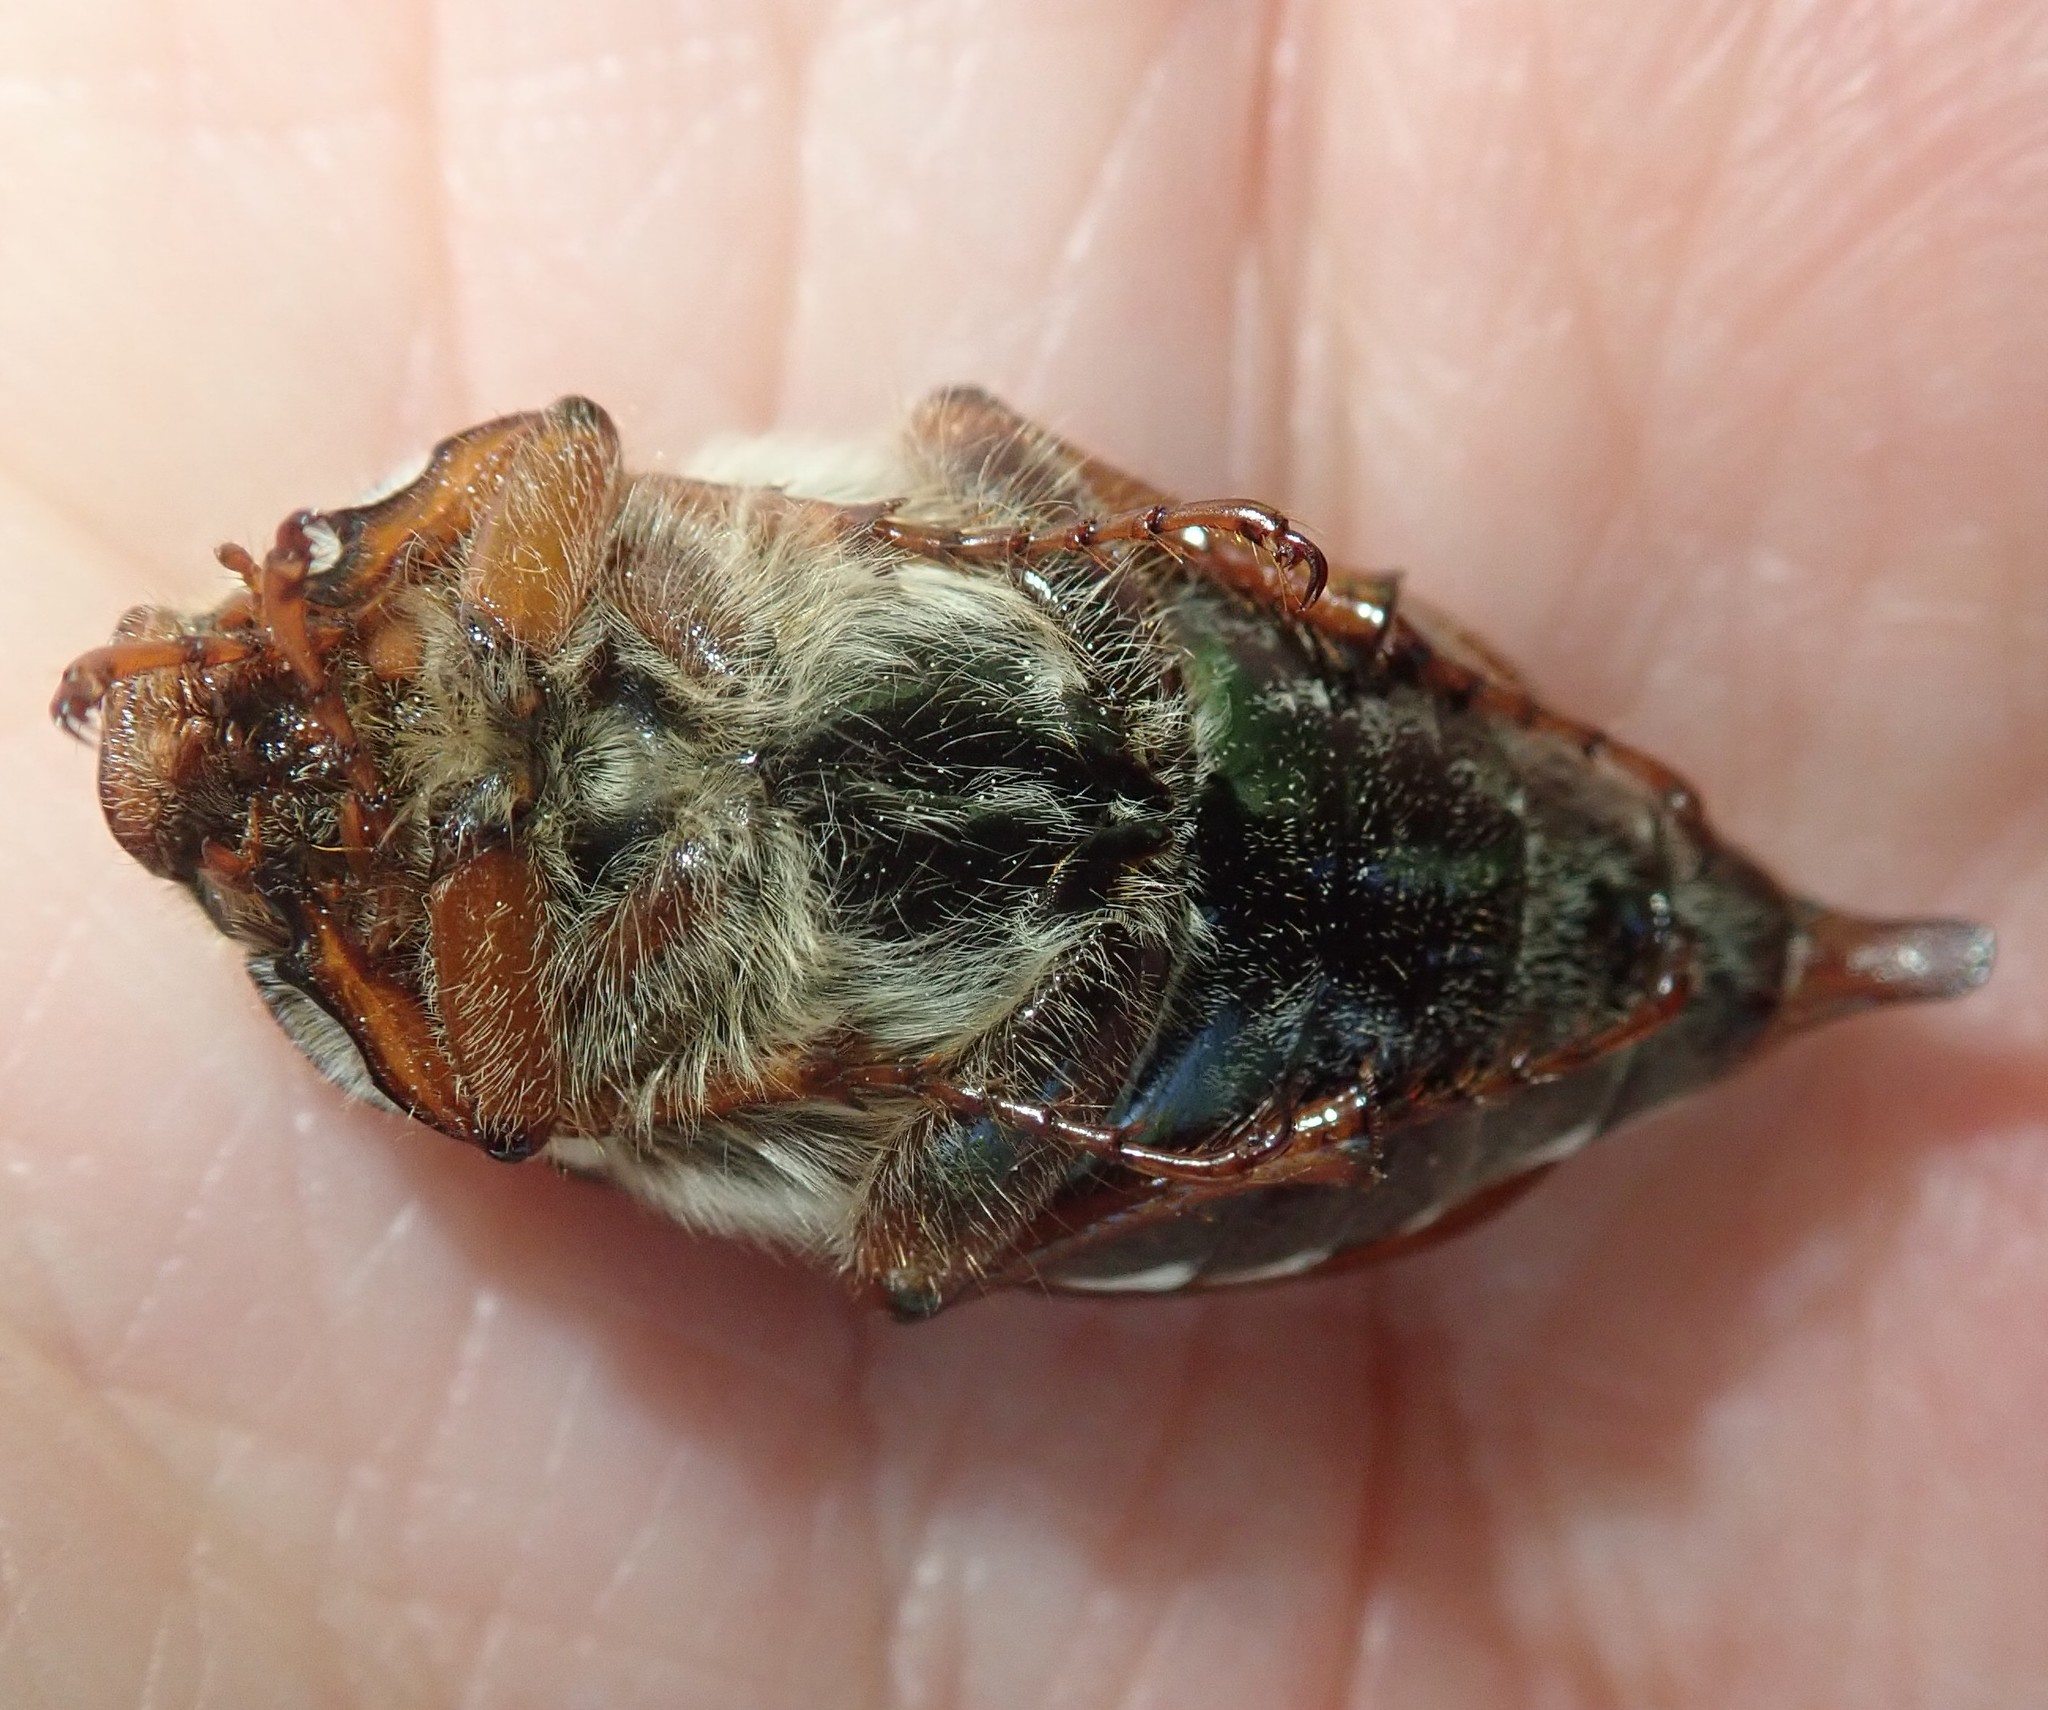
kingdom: Animalia
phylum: Arthropoda
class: Insecta
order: Coleoptera
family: Scarabaeidae
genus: Melolontha
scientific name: Melolontha melolontha
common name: Cockchafer maybeetle
